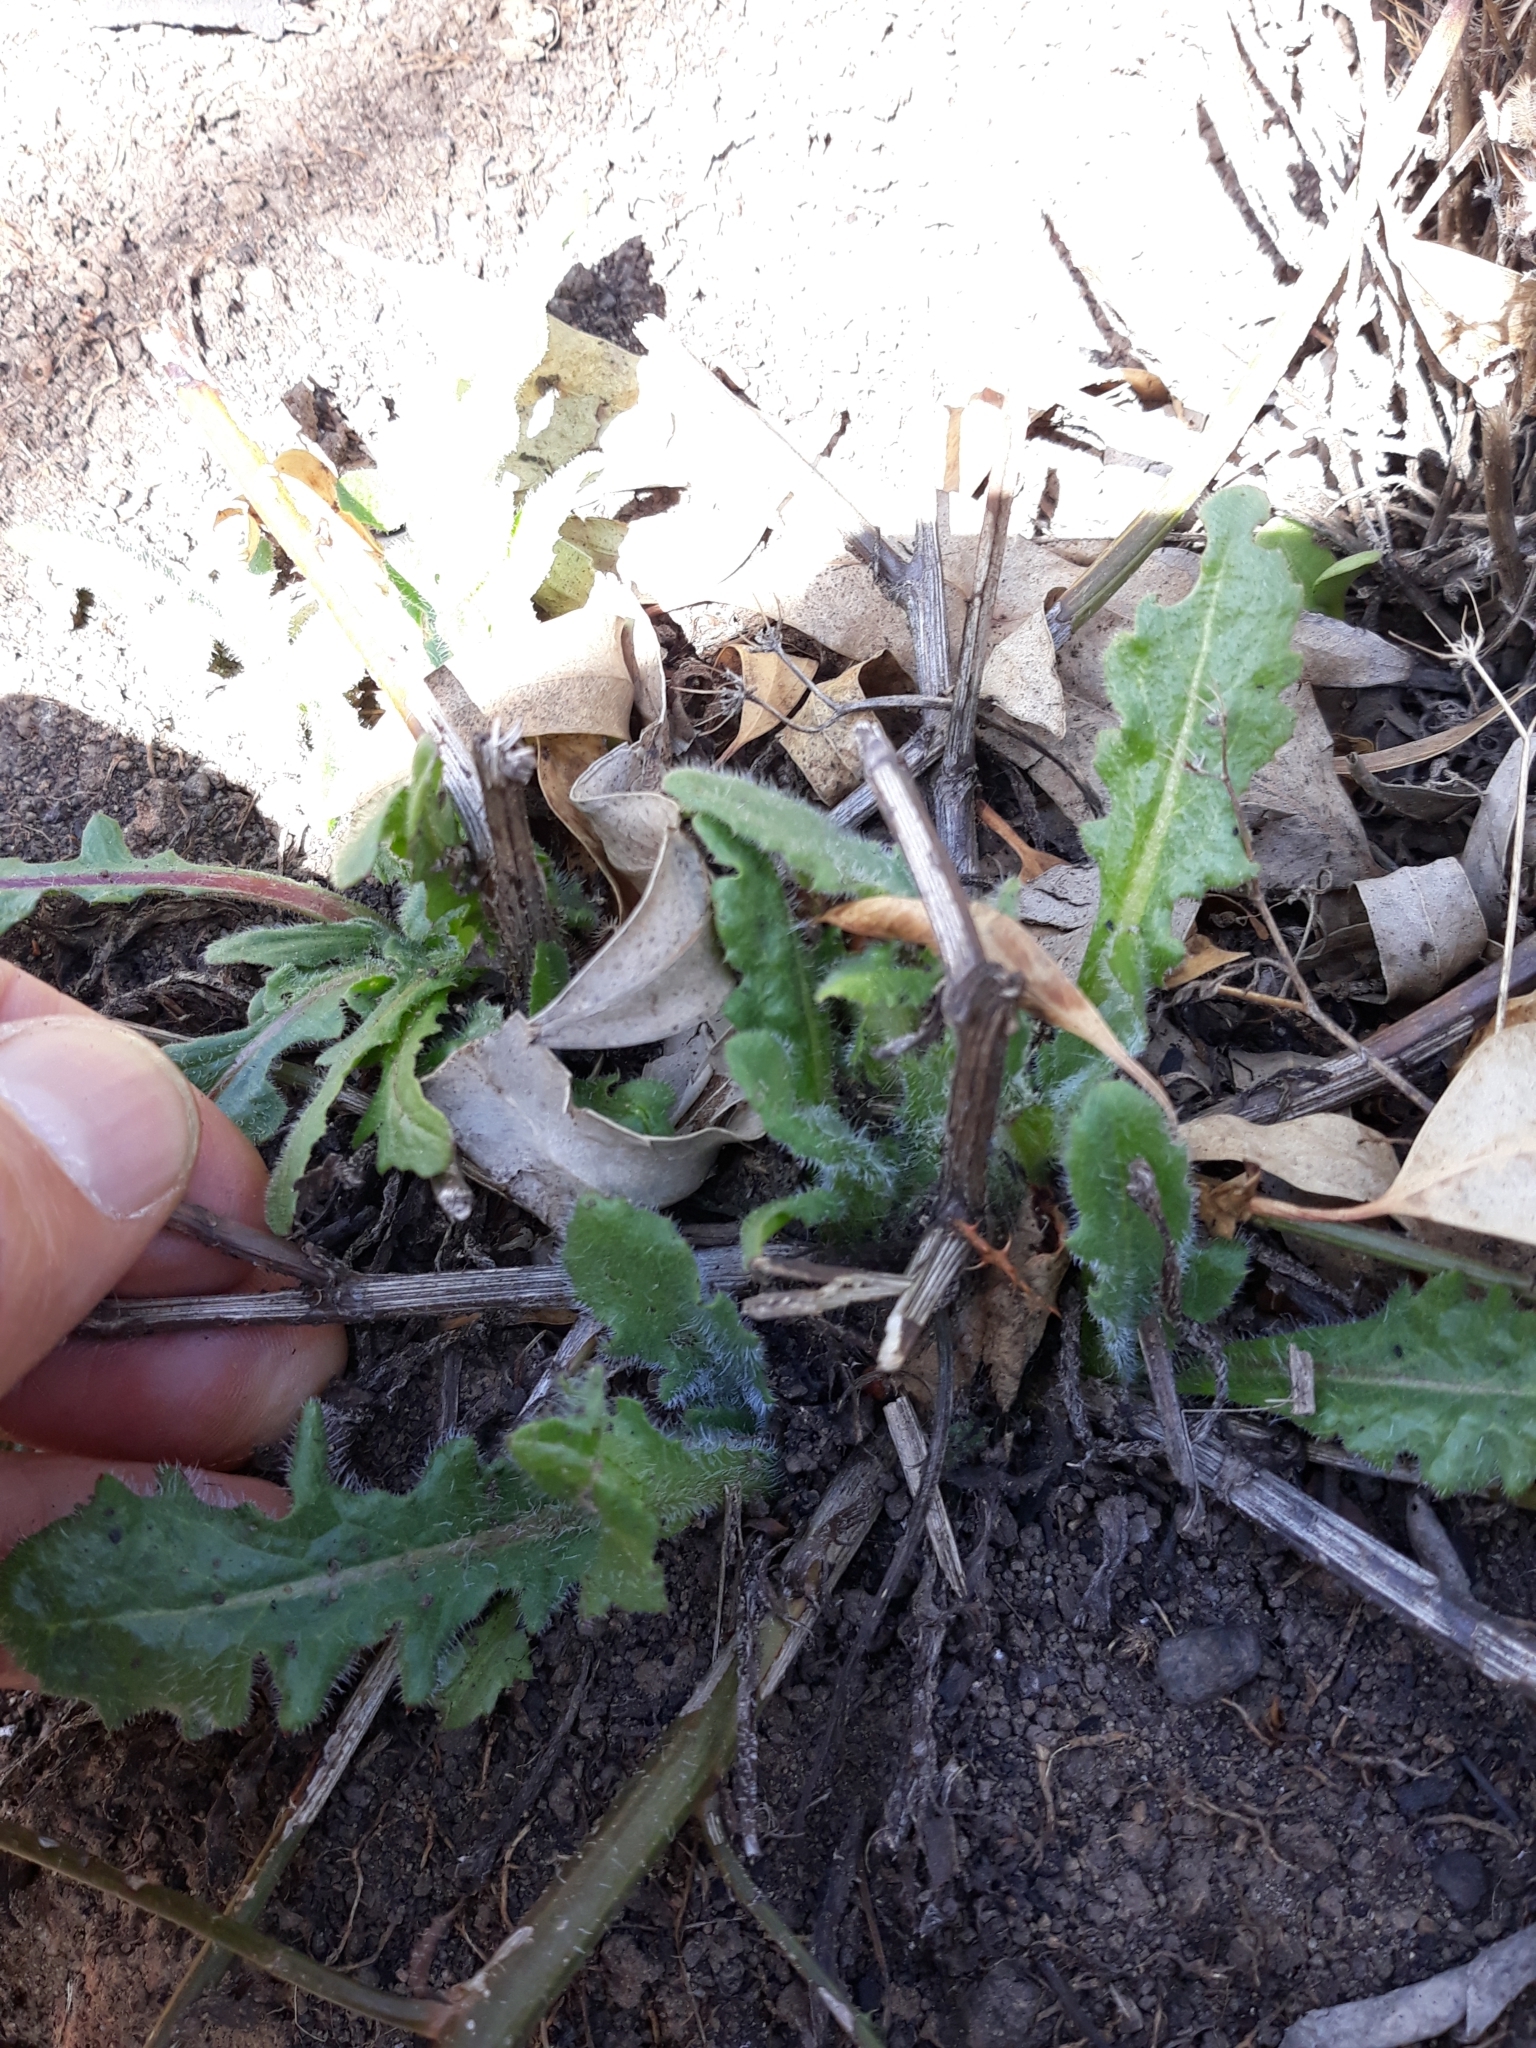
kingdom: Plantae
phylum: Tracheophyta
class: Magnoliopsida
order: Asterales
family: Asteraceae
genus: Mantisalca
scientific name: Mantisalca salmantica
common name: Dagger flower
